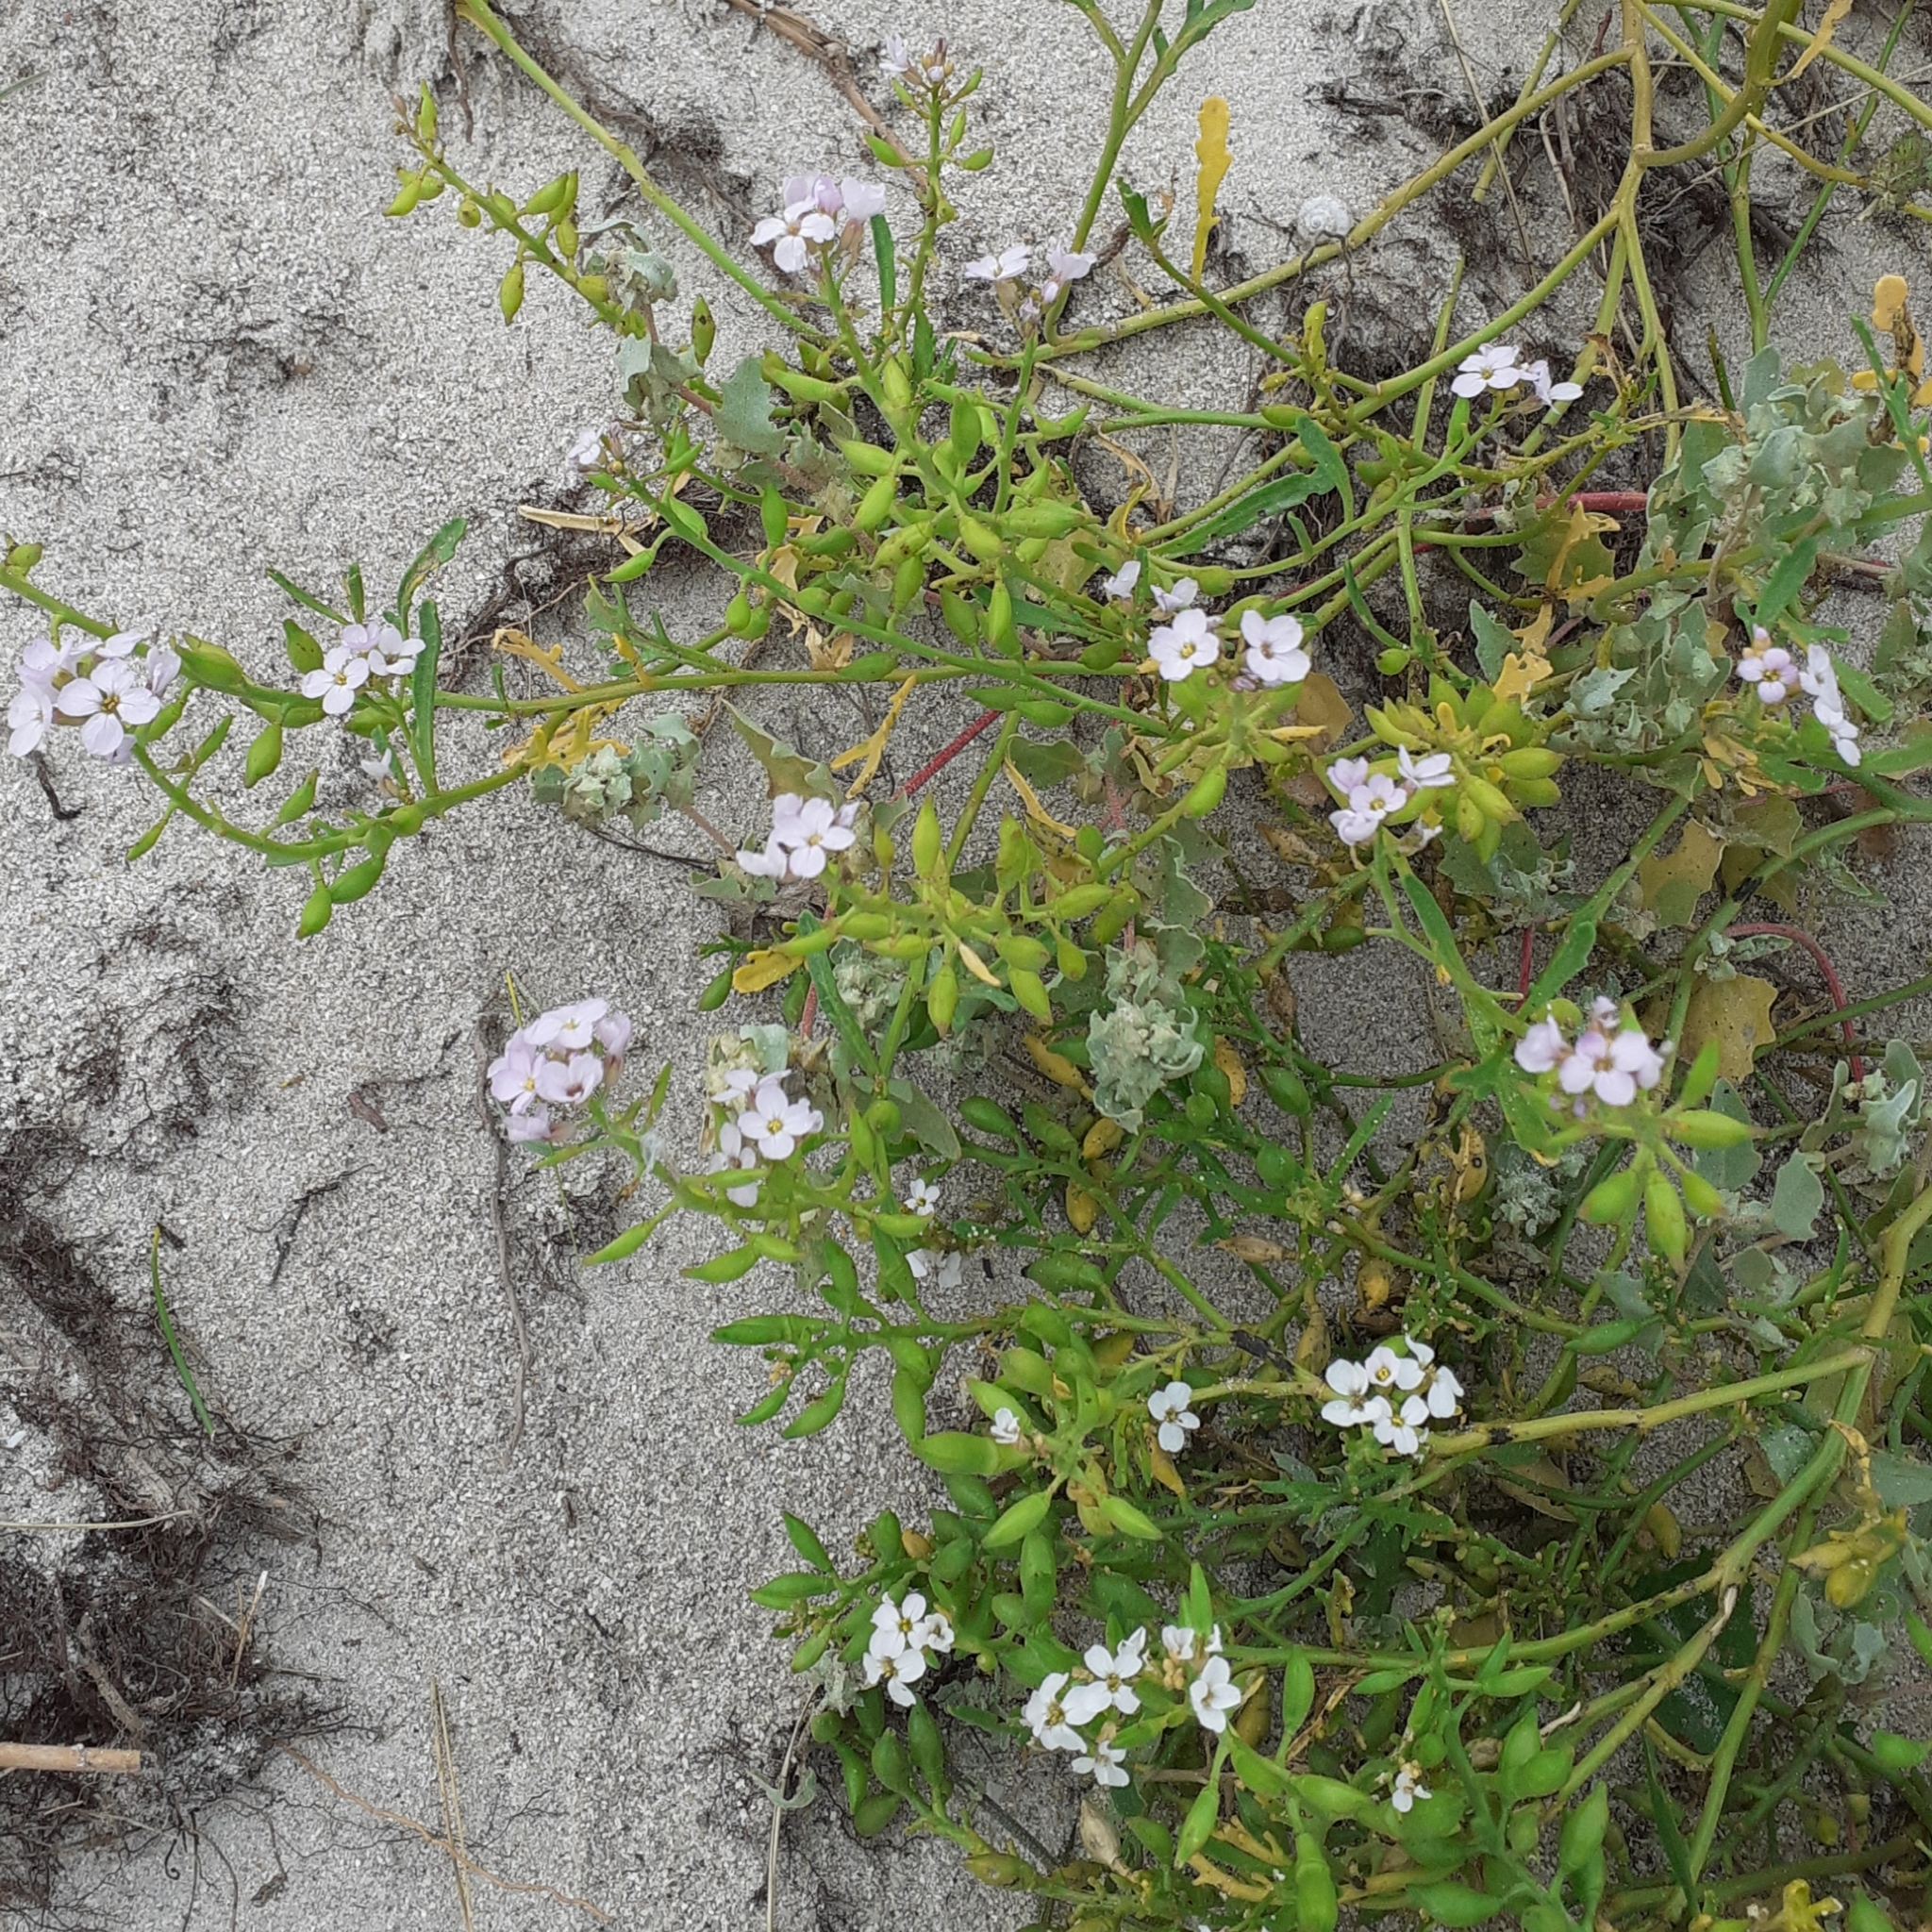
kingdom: Plantae
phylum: Tracheophyta
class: Magnoliopsida
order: Brassicales
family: Brassicaceae
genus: Cakile
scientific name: Cakile maritima
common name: Sea rocket
